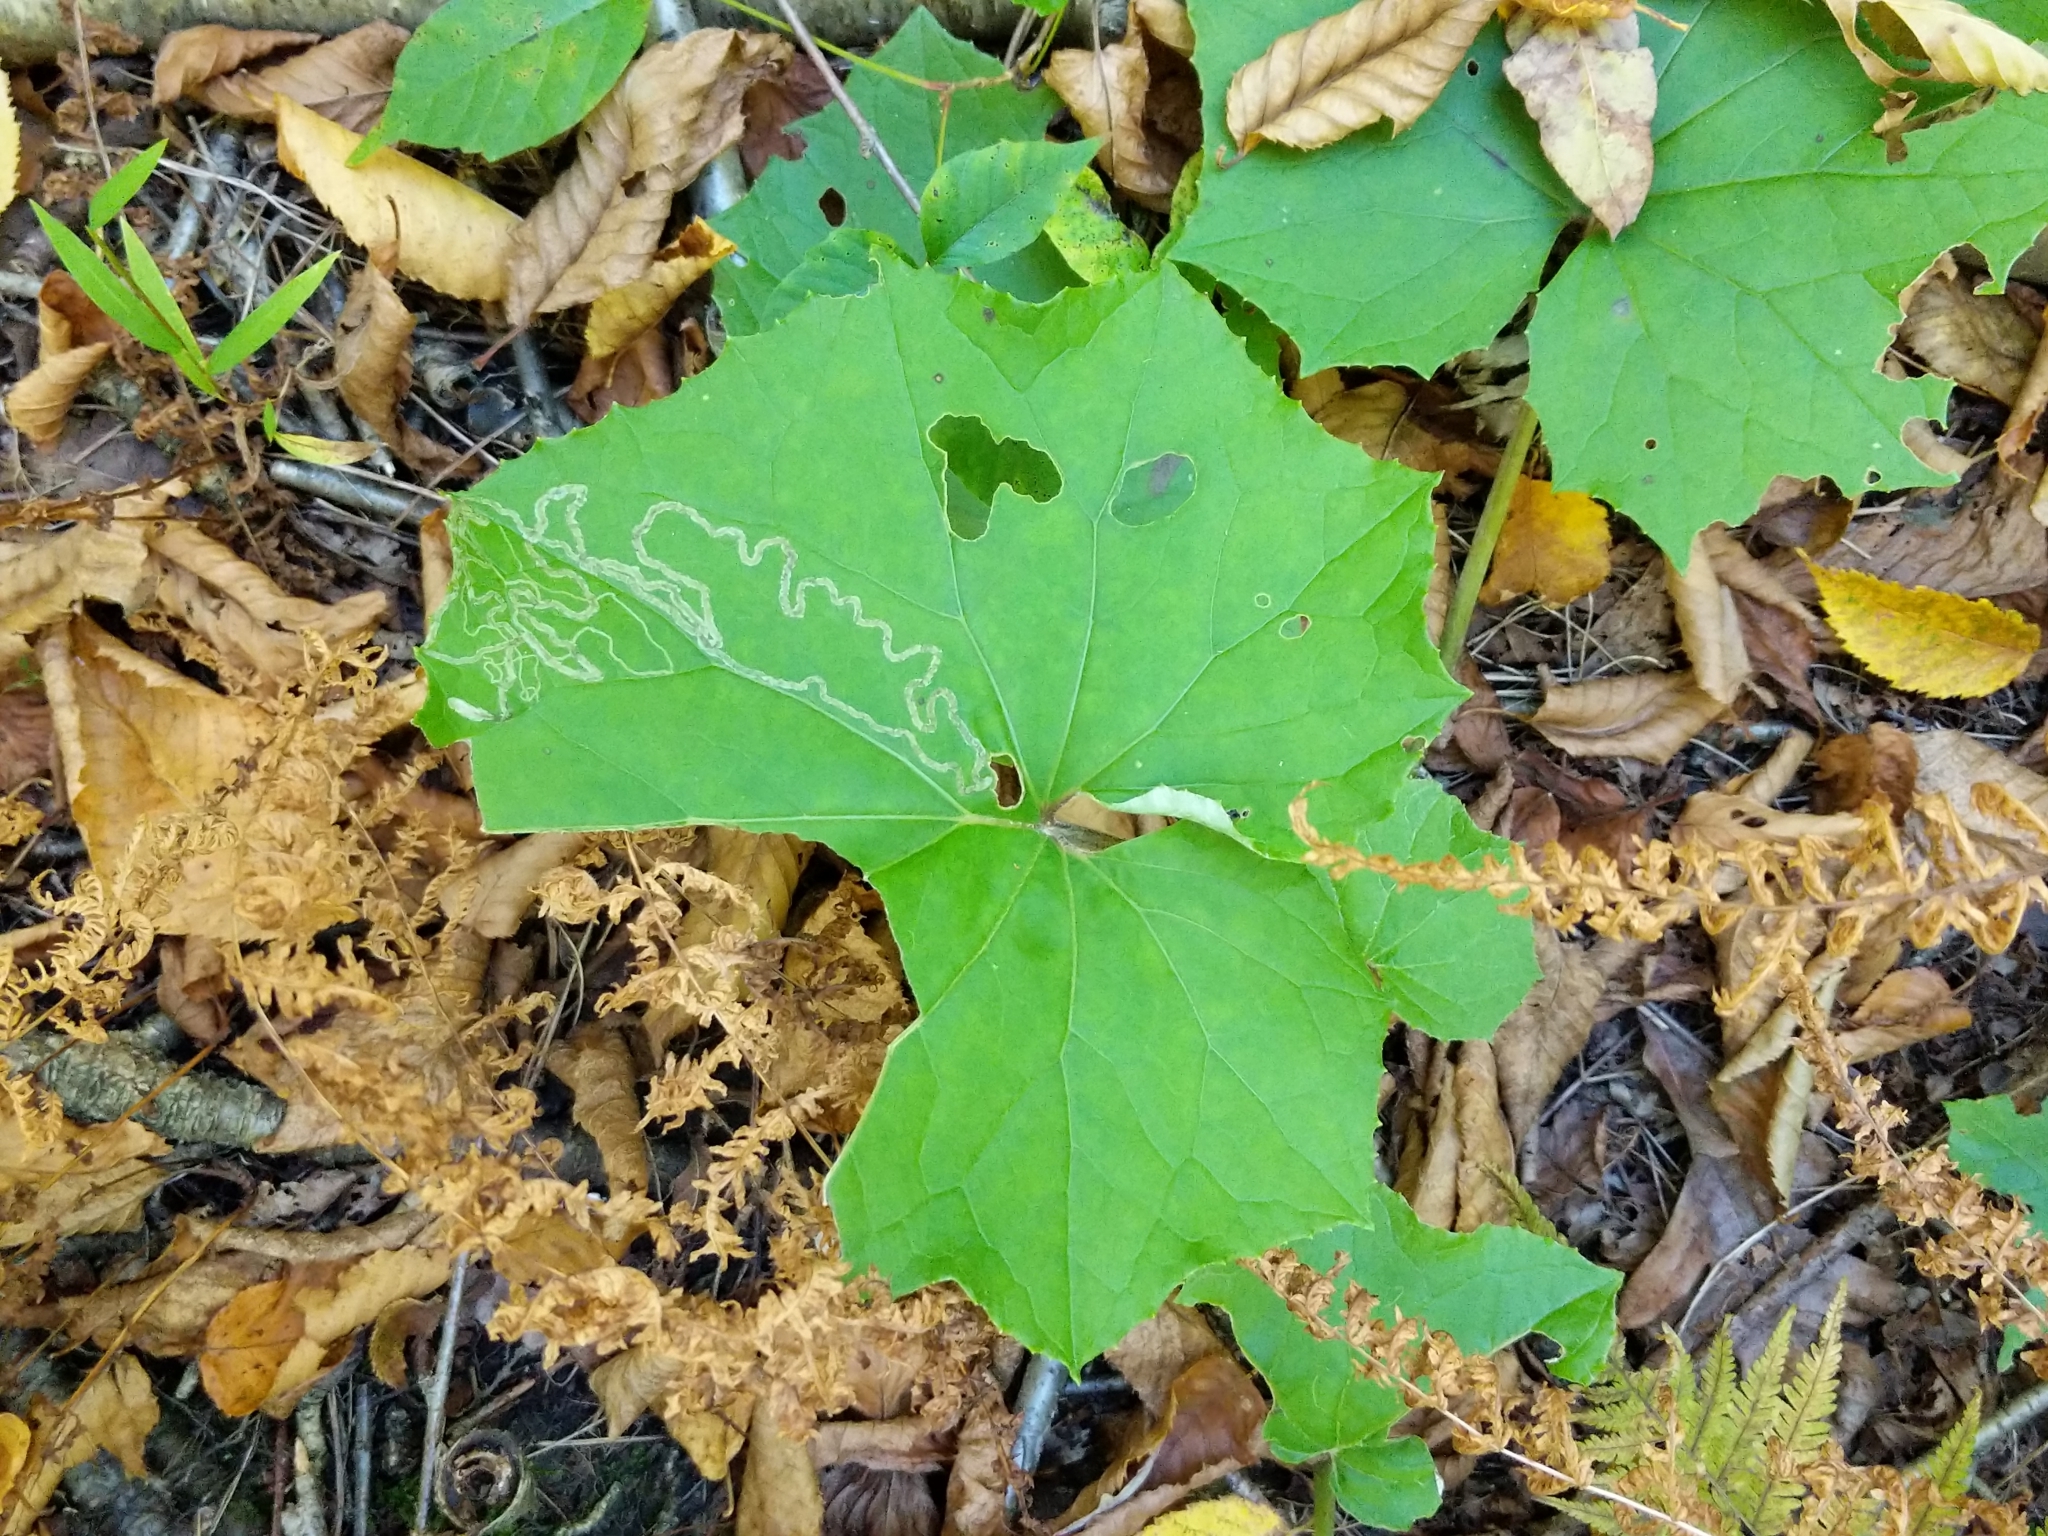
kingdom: Plantae
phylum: Tracheophyta
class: Magnoliopsida
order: Asterales
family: Asteraceae
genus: Tussilago
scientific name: Tussilago farfara
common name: Coltsfoot
